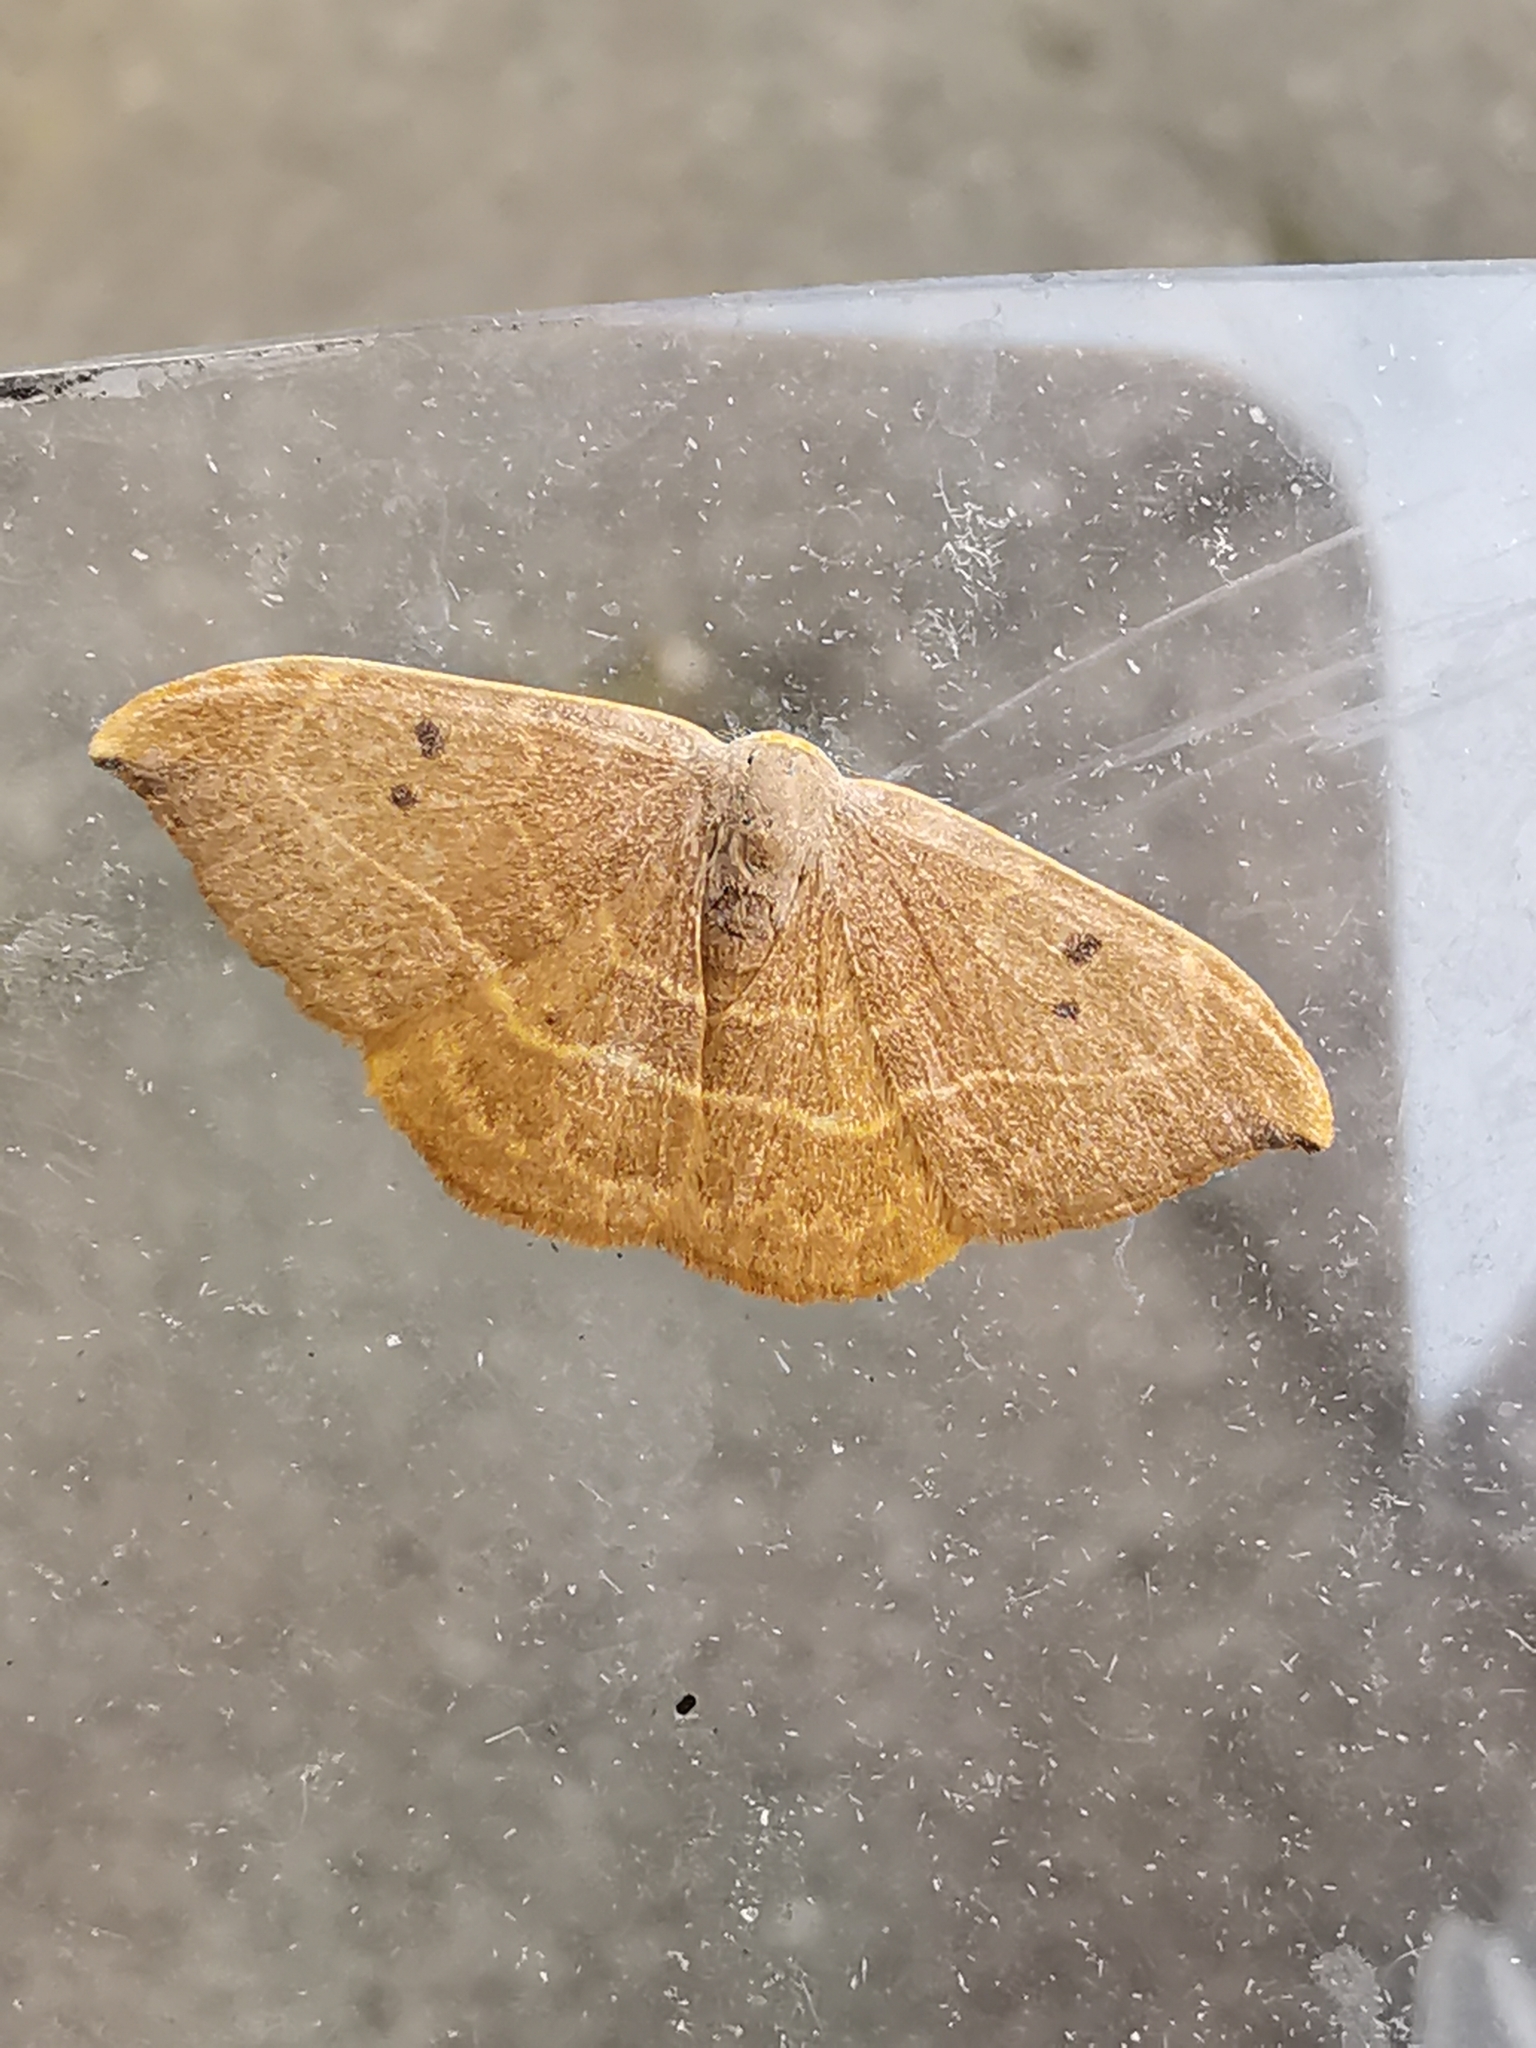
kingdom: Animalia
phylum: Arthropoda
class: Insecta
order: Lepidoptera
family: Drepanidae
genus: Watsonalla
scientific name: Watsonalla binaria
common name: Oak hook-tip
